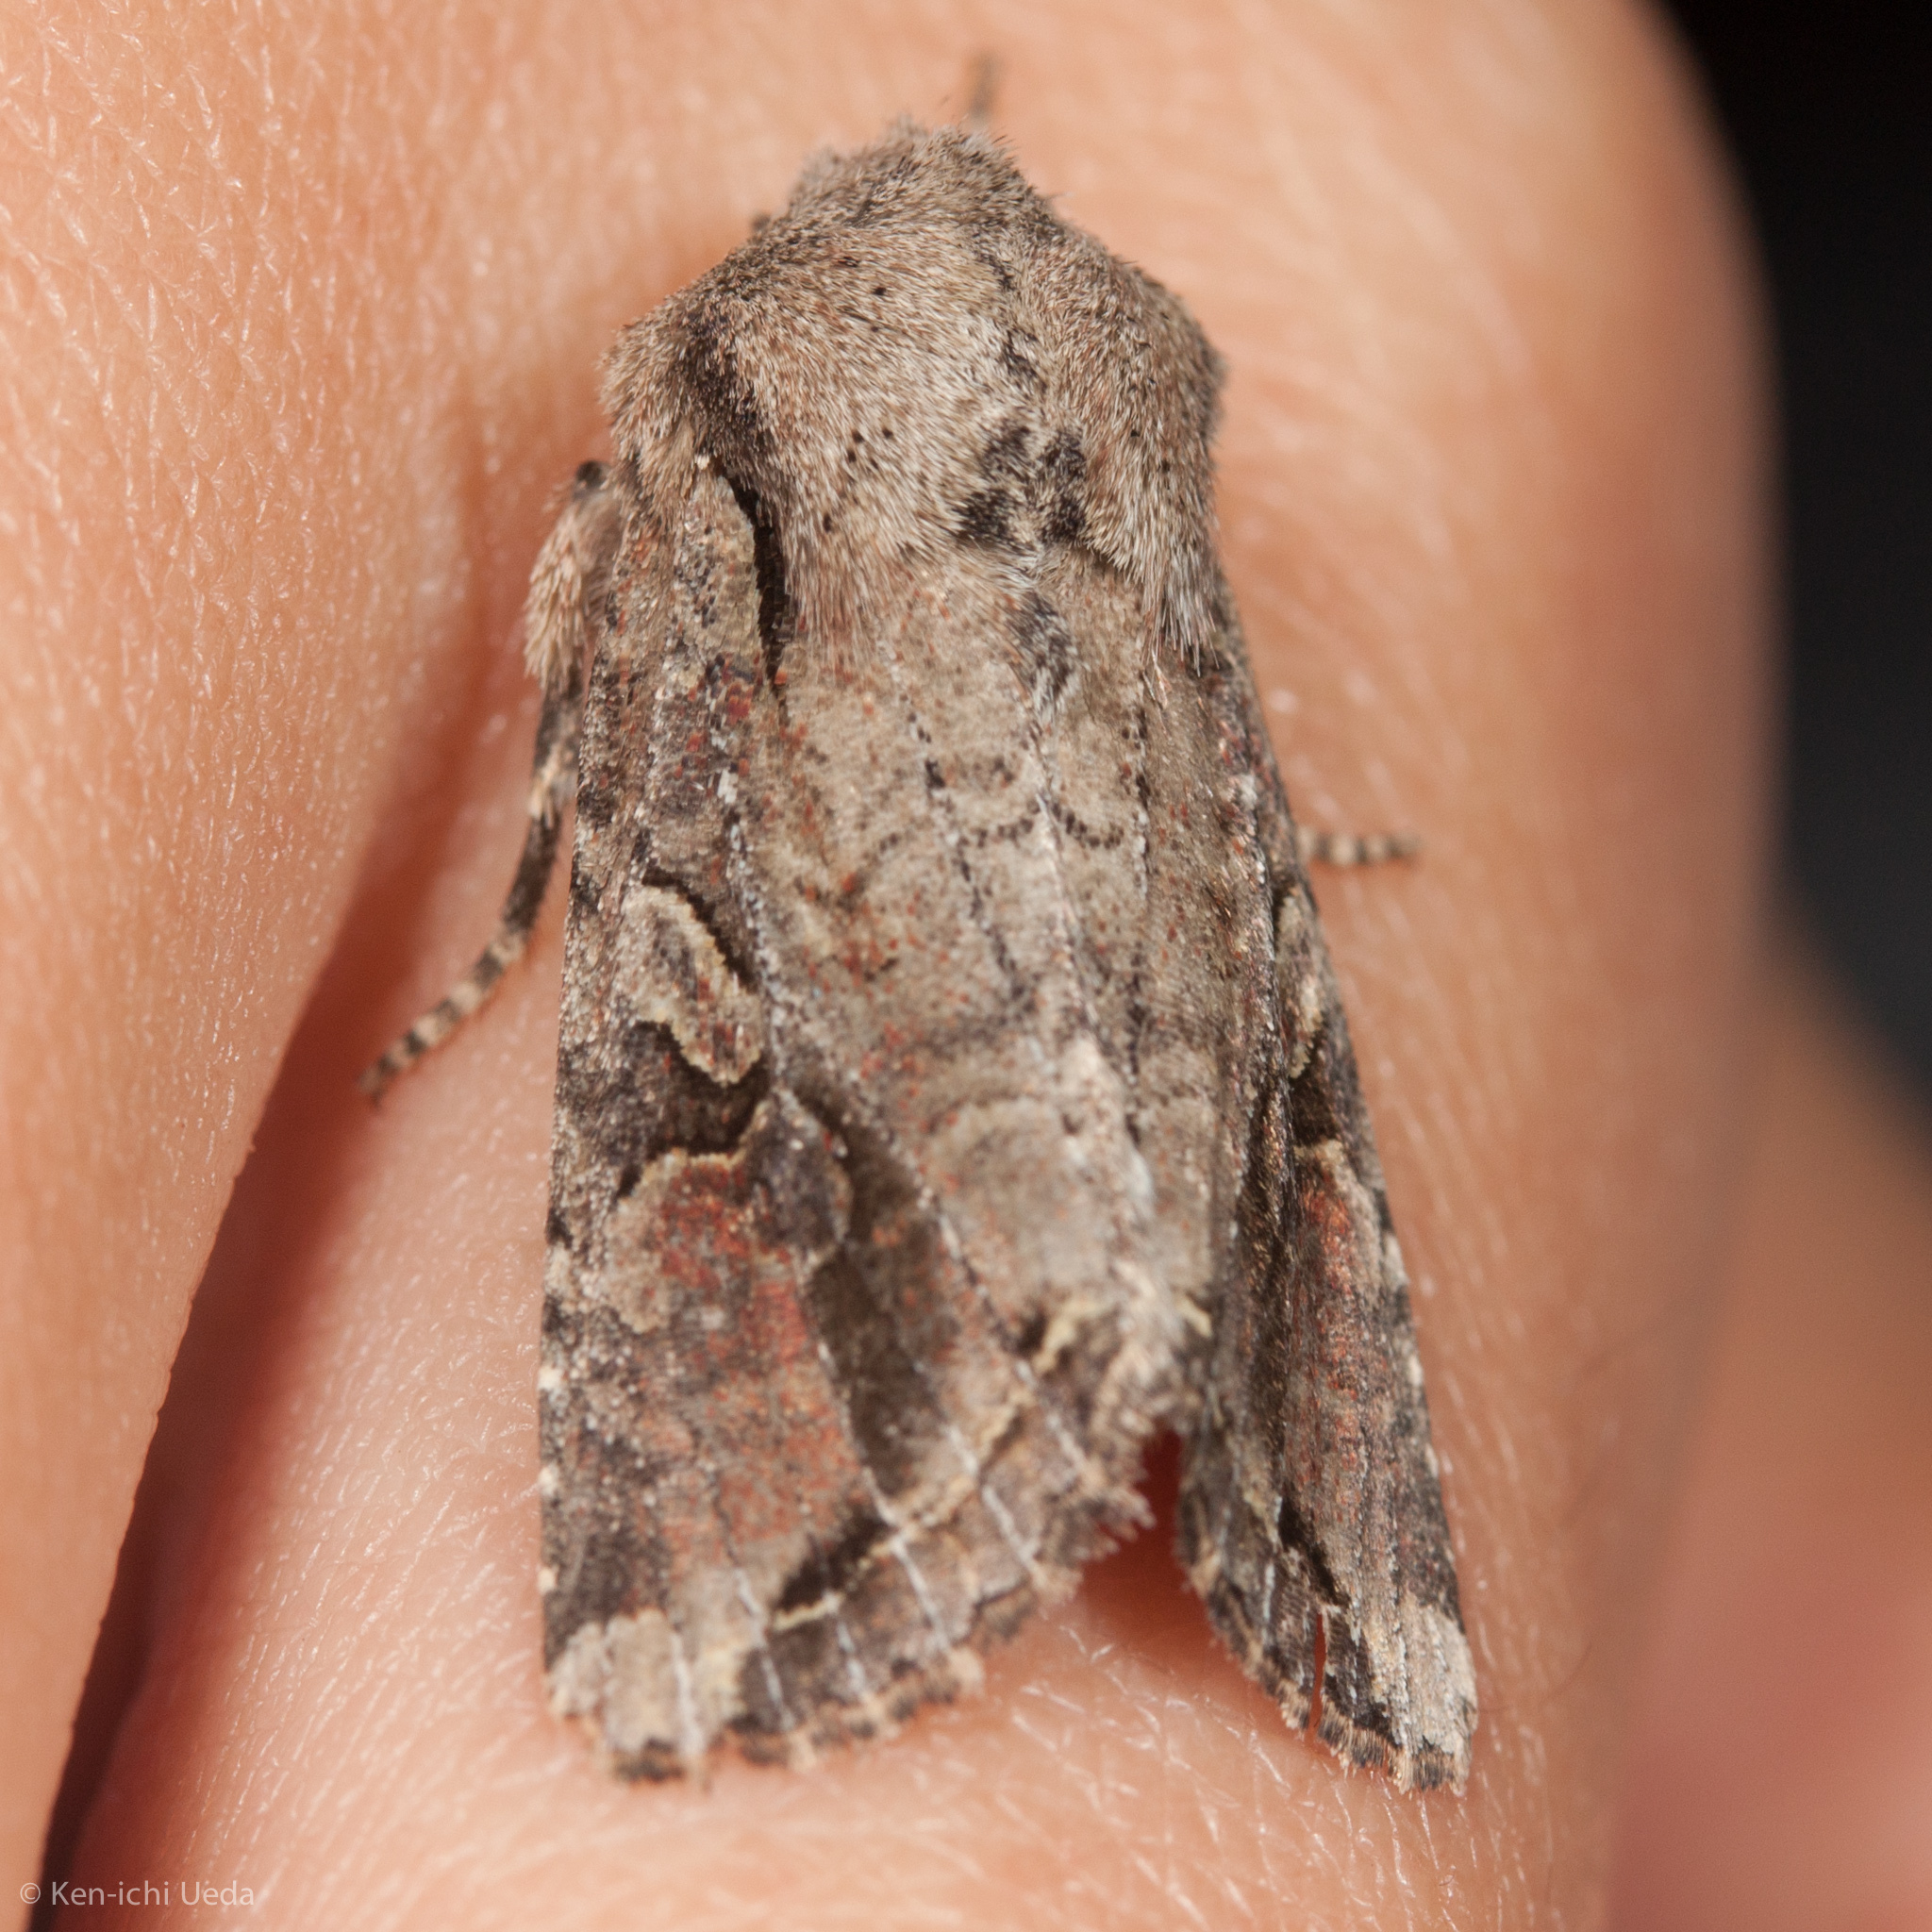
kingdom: Animalia
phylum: Arthropoda
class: Insecta
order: Lepidoptera
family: Noctuidae
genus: Egira
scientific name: Egira rubrica
